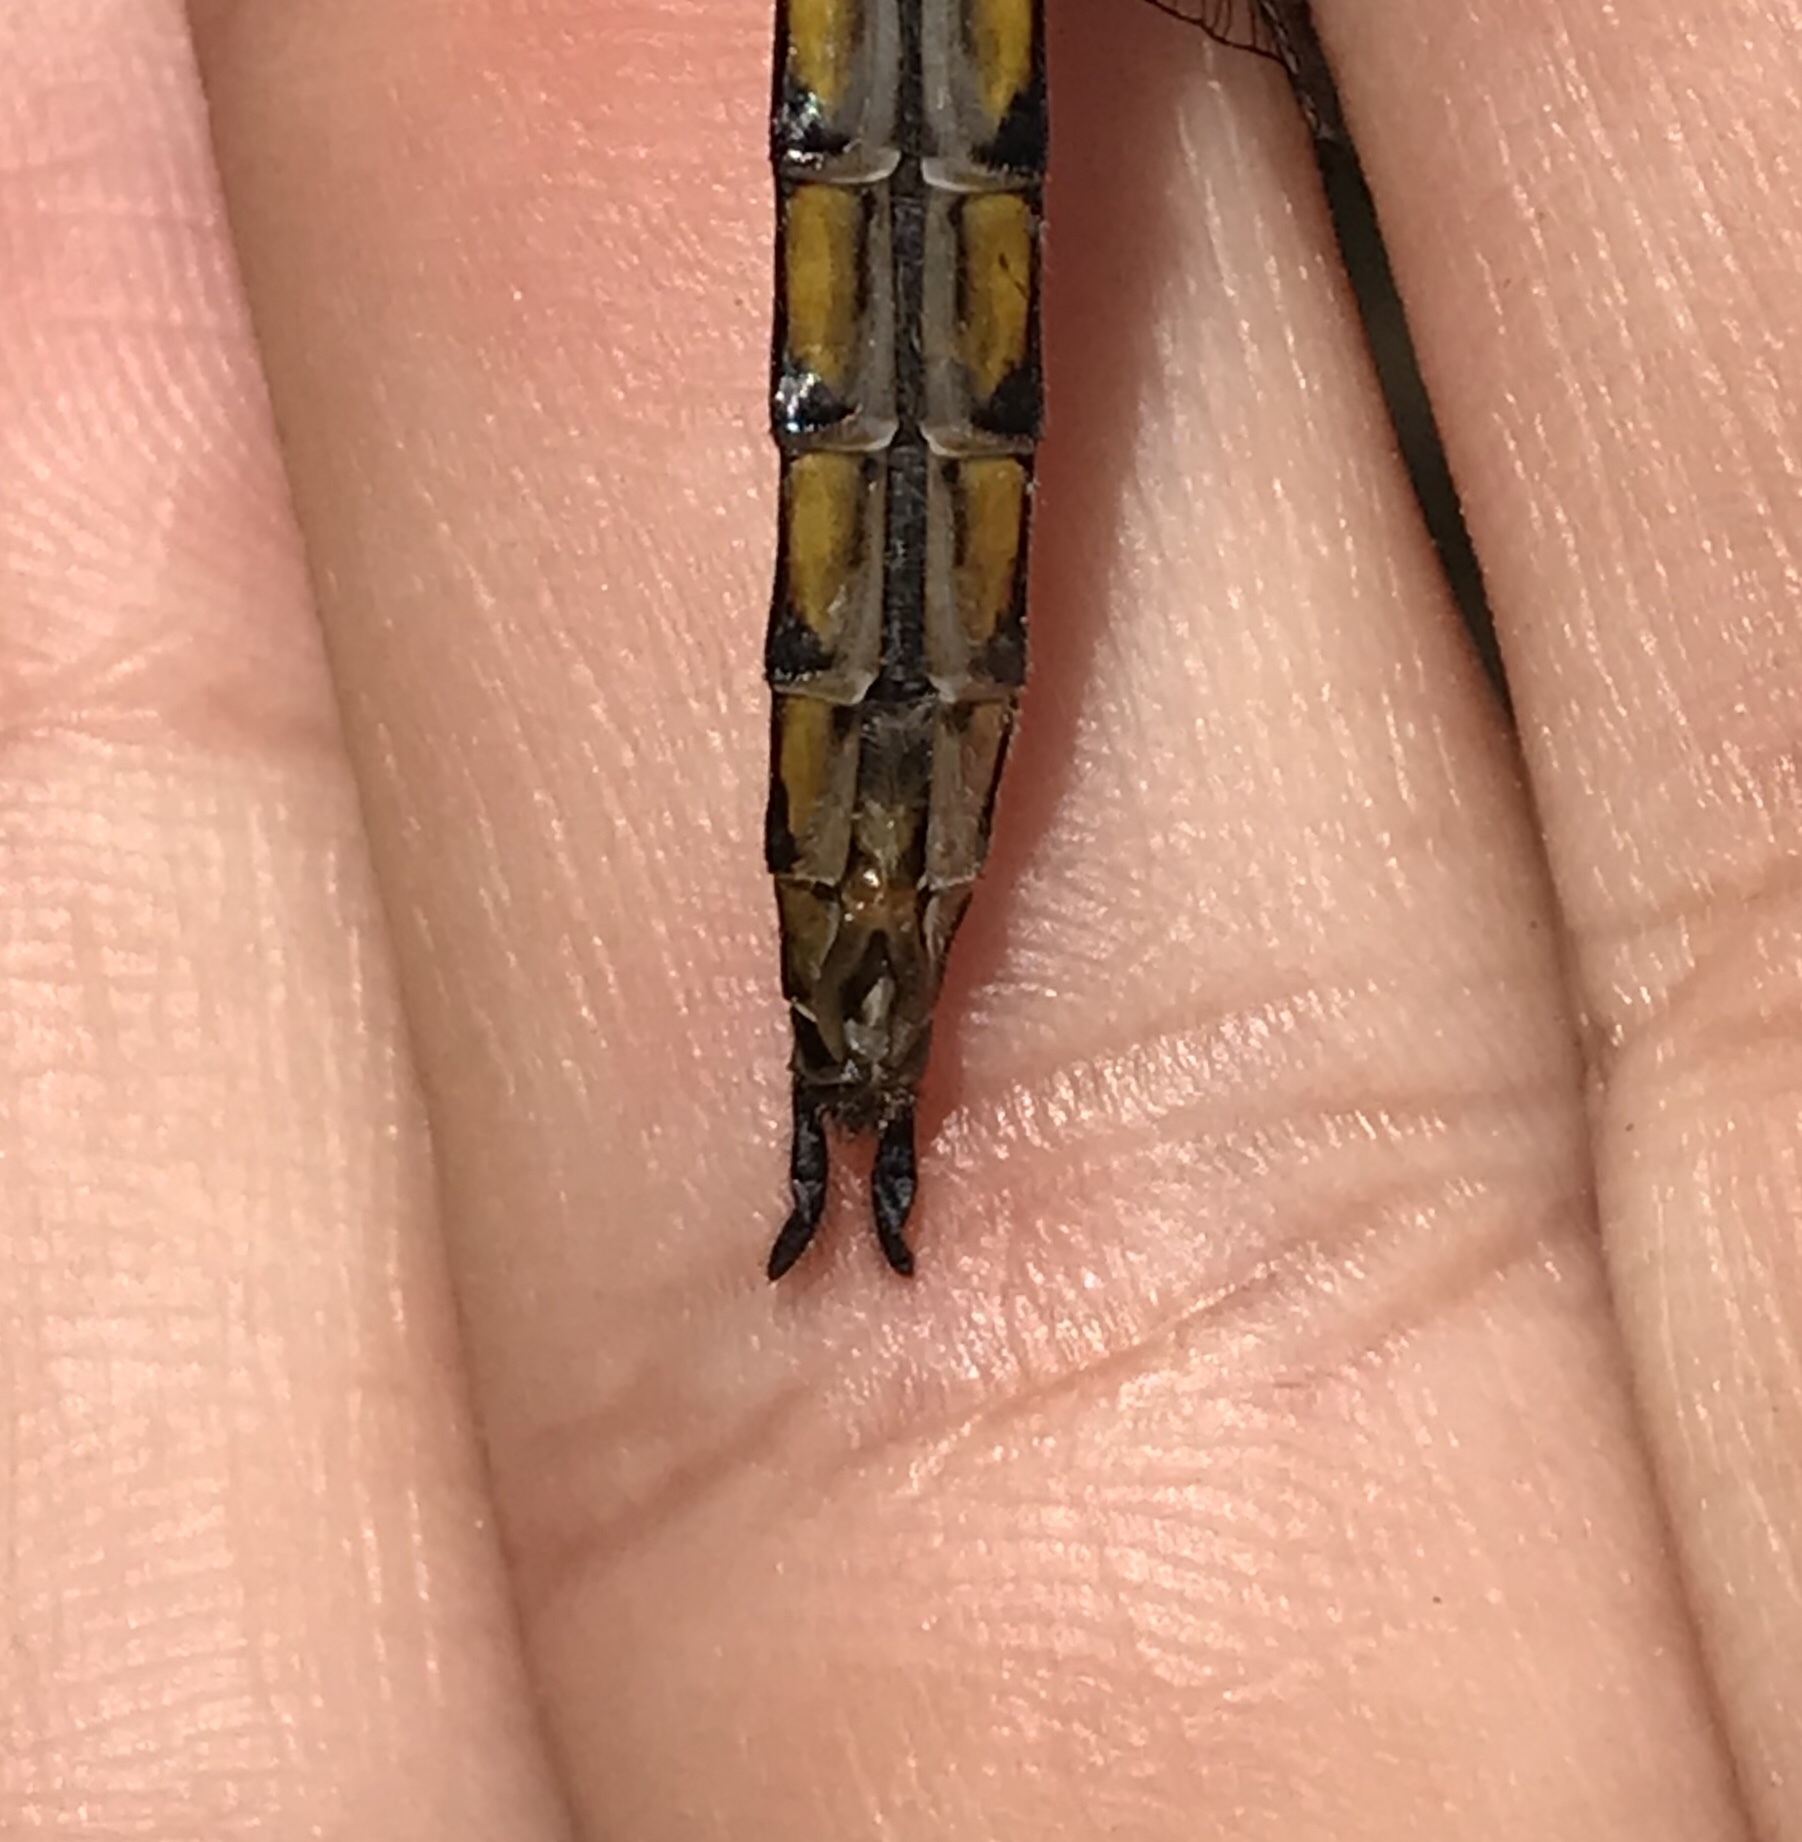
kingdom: Animalia
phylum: Arthropoda
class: Insecta
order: Odonata
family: Corduliidae
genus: Epitheca
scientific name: Epitheca spinigera
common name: Spiny baskettail
